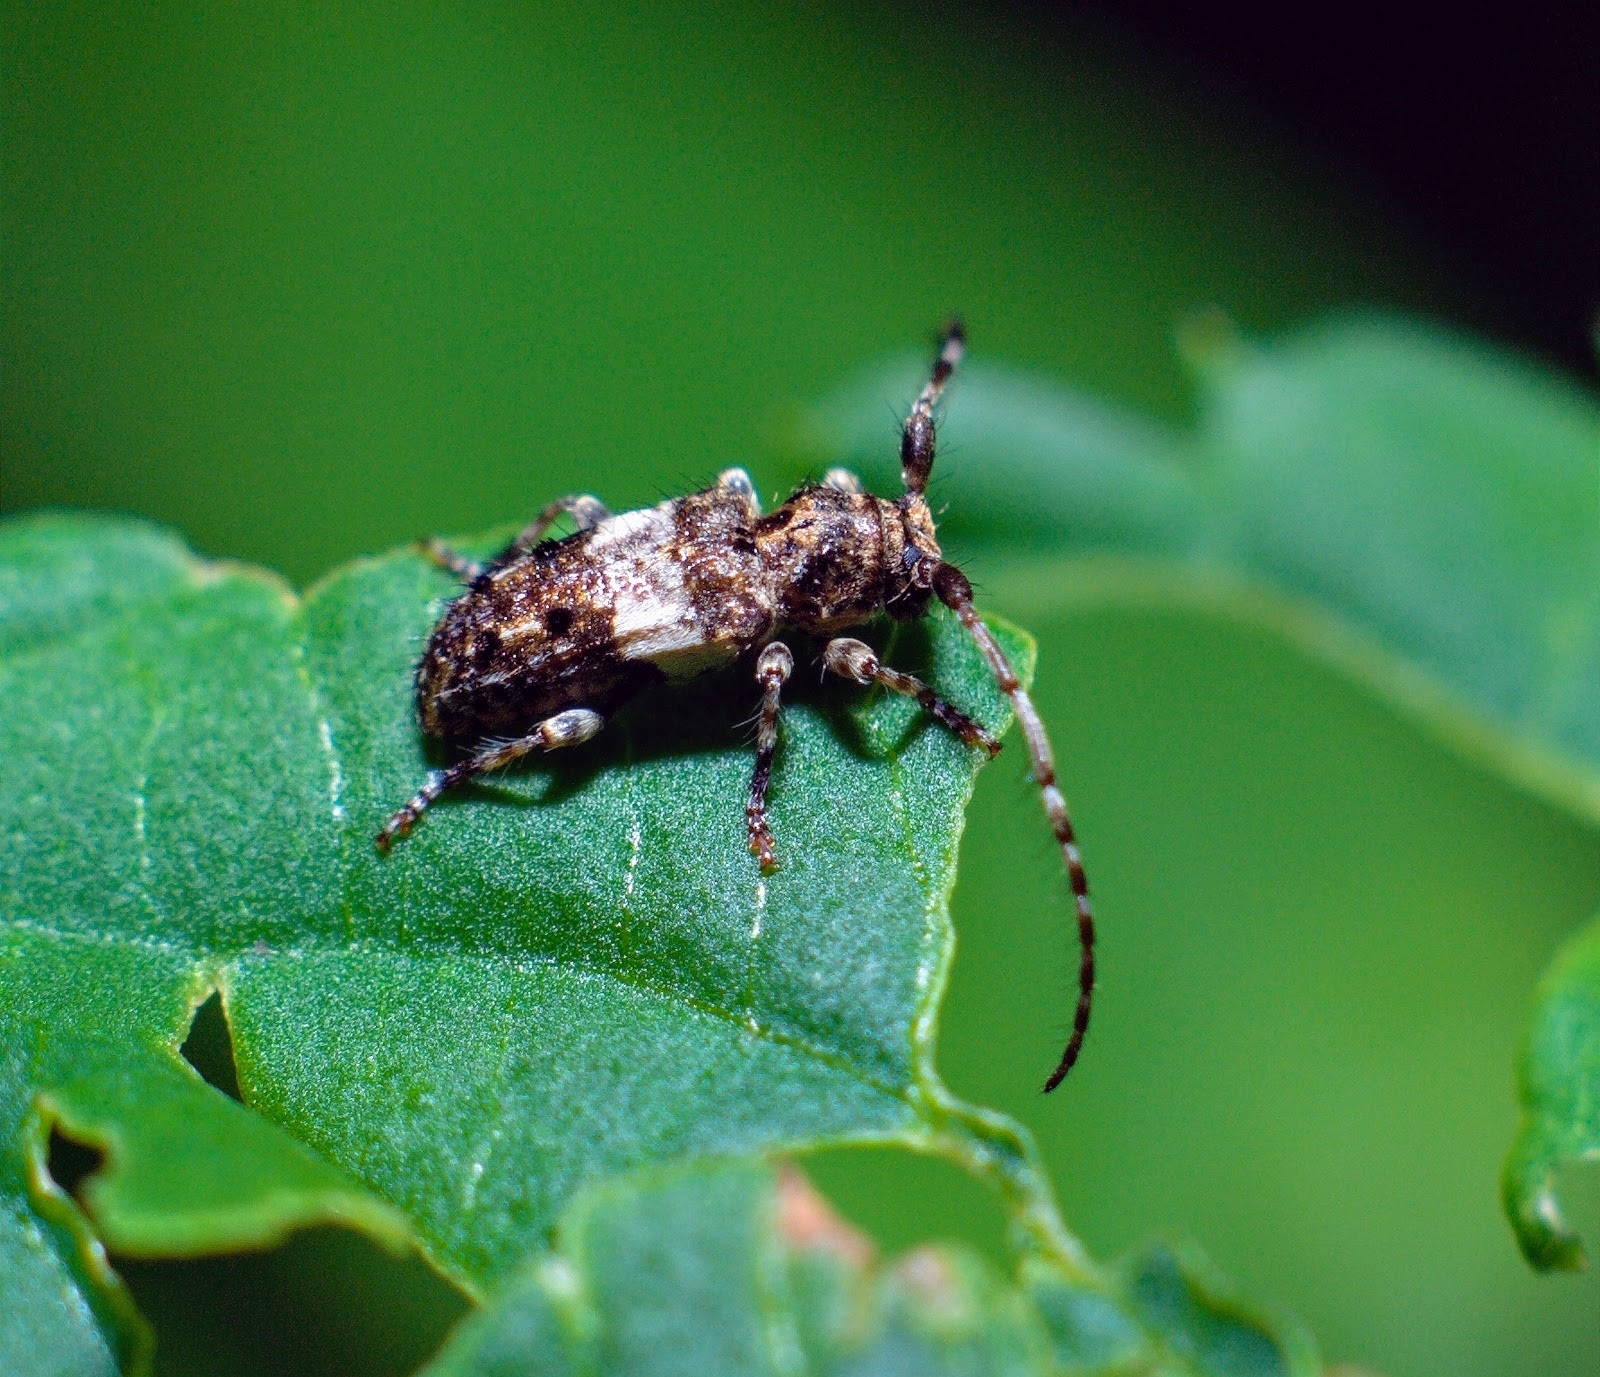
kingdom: Animalia
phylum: Arthropoda
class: Insecta
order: Coleoptera
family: Cerambycidae
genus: Pogonocherus
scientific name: Pogonocherus fasciculatus
